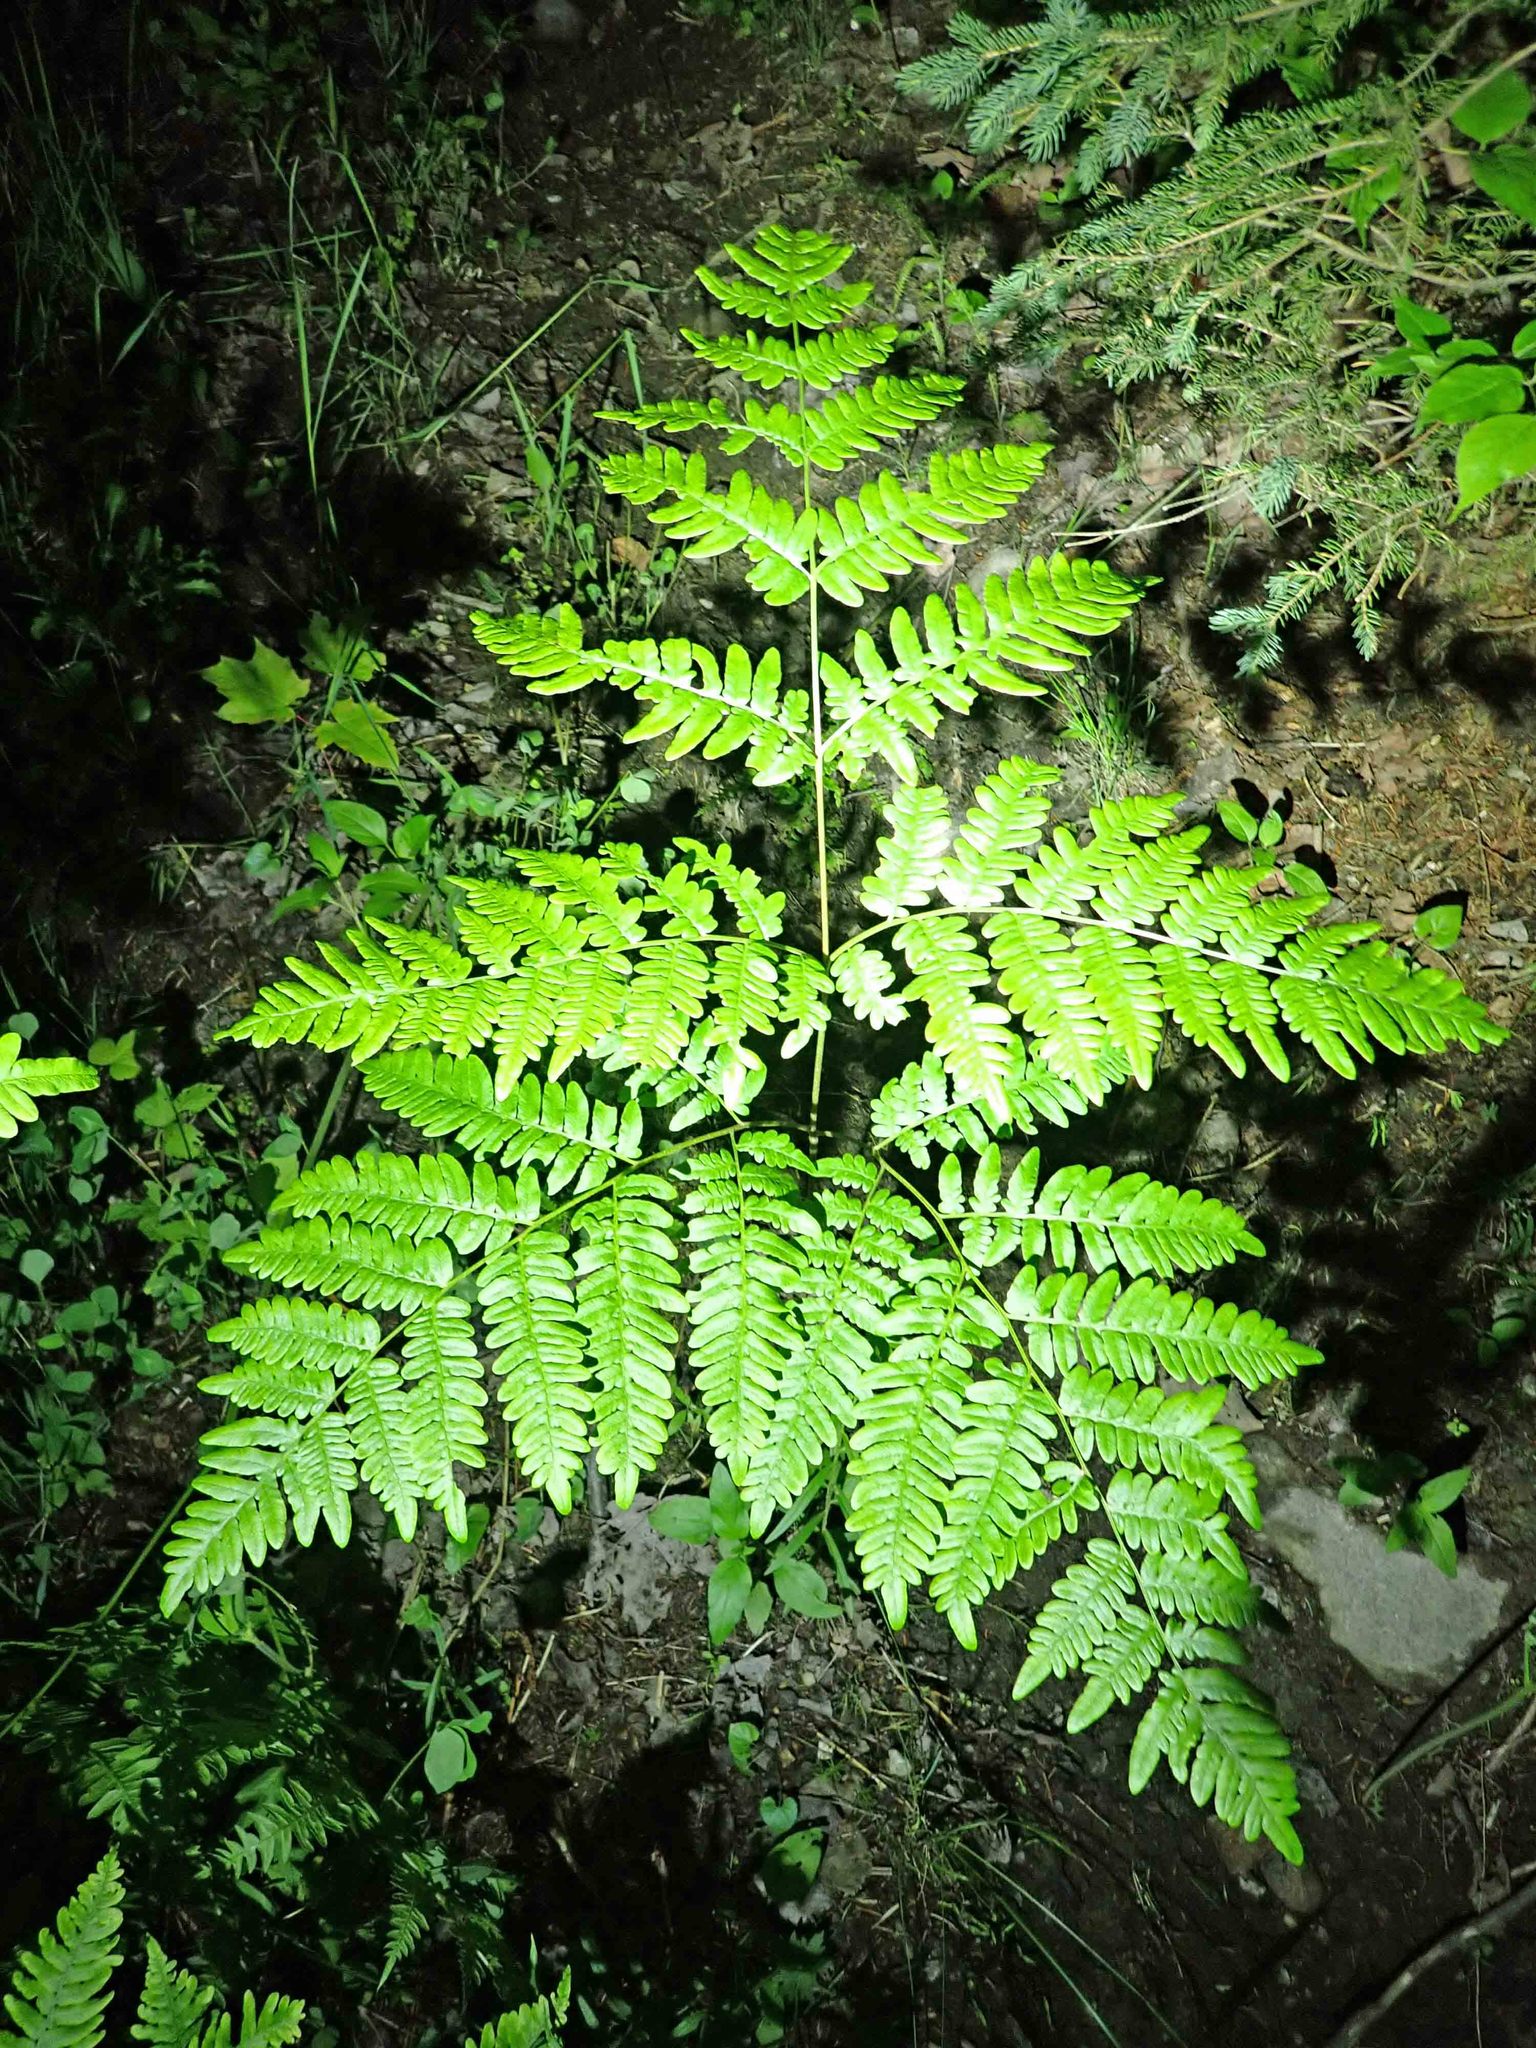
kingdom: Plantae
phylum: Tracheophyta
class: Polypodiopsida
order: Polypodiales
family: Dennstaedtiaceae
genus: Pteridium
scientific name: Pteridium aquilinum
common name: Bracken
